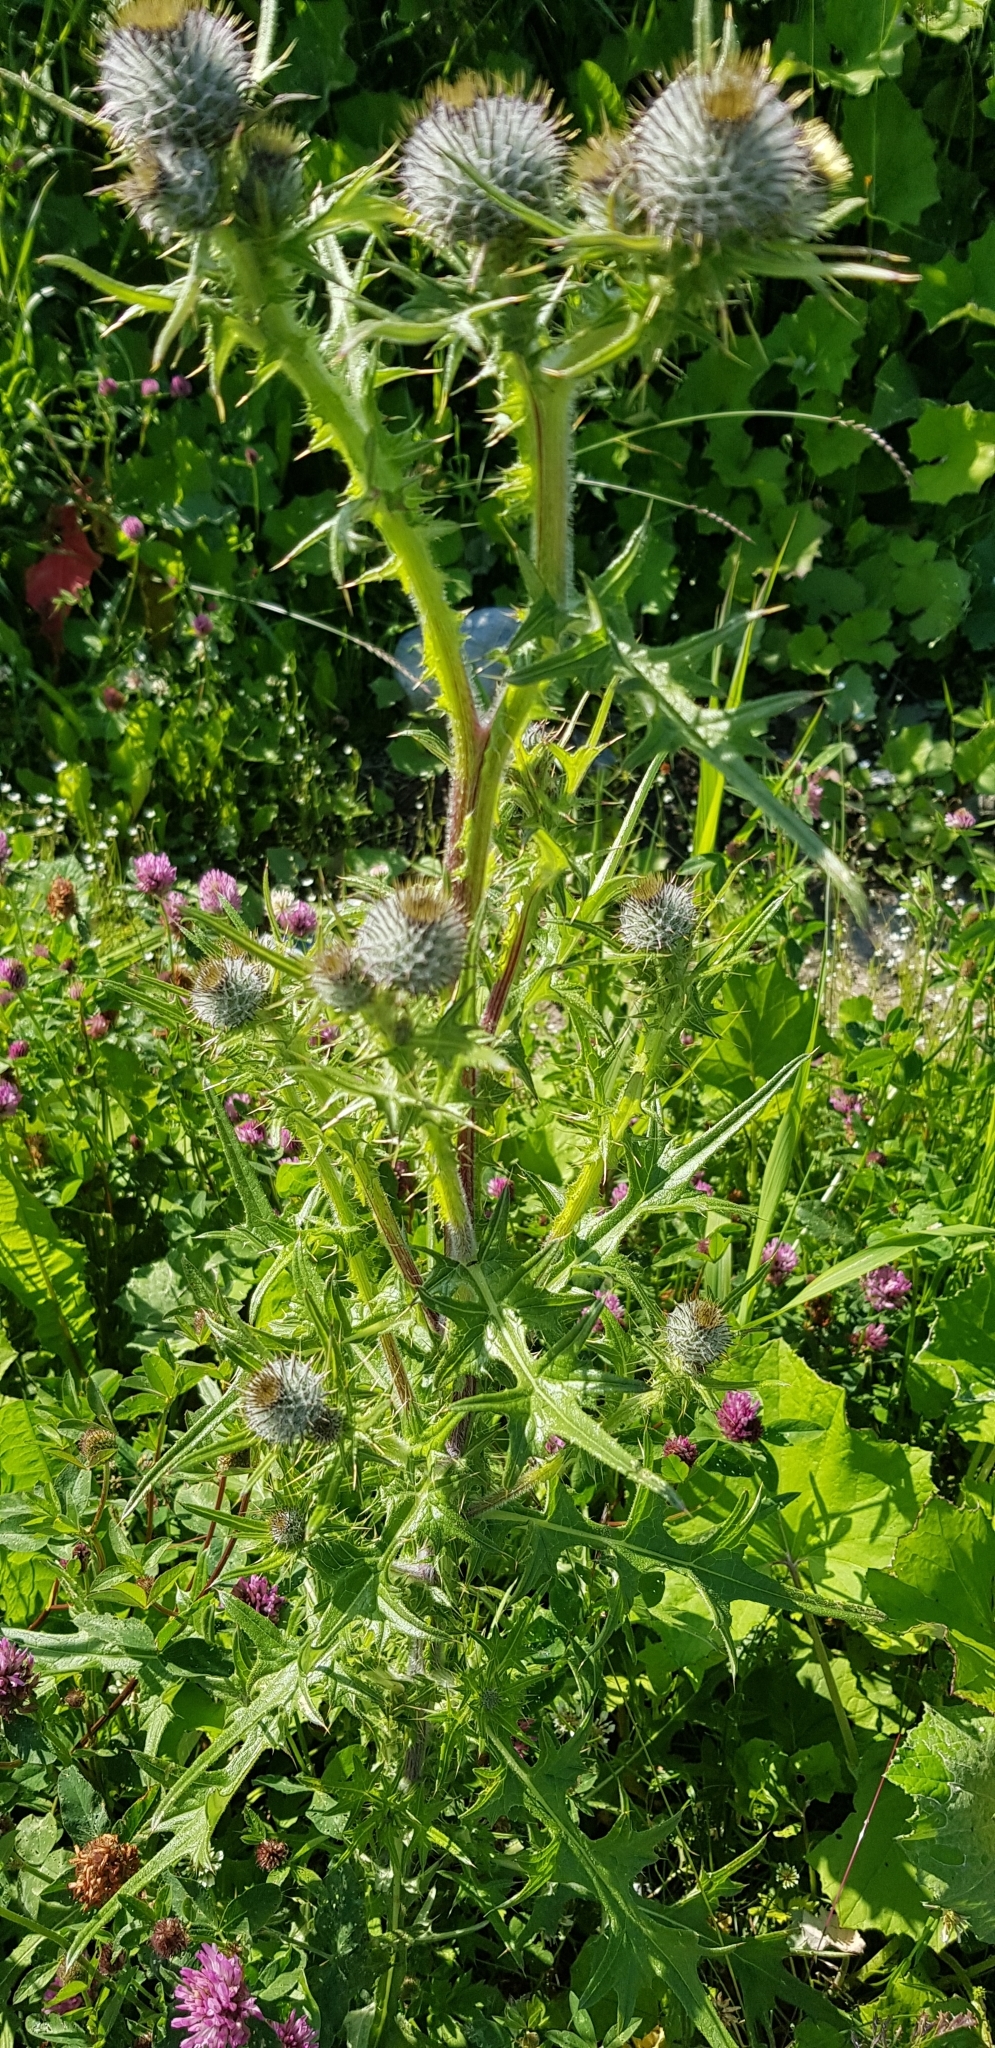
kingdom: Plantae
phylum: Tracheophyta
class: Magnoliopsida
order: Asterales
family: Asteraceae
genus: Cirsium
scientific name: Cirsium vulgare
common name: Bull thistle
